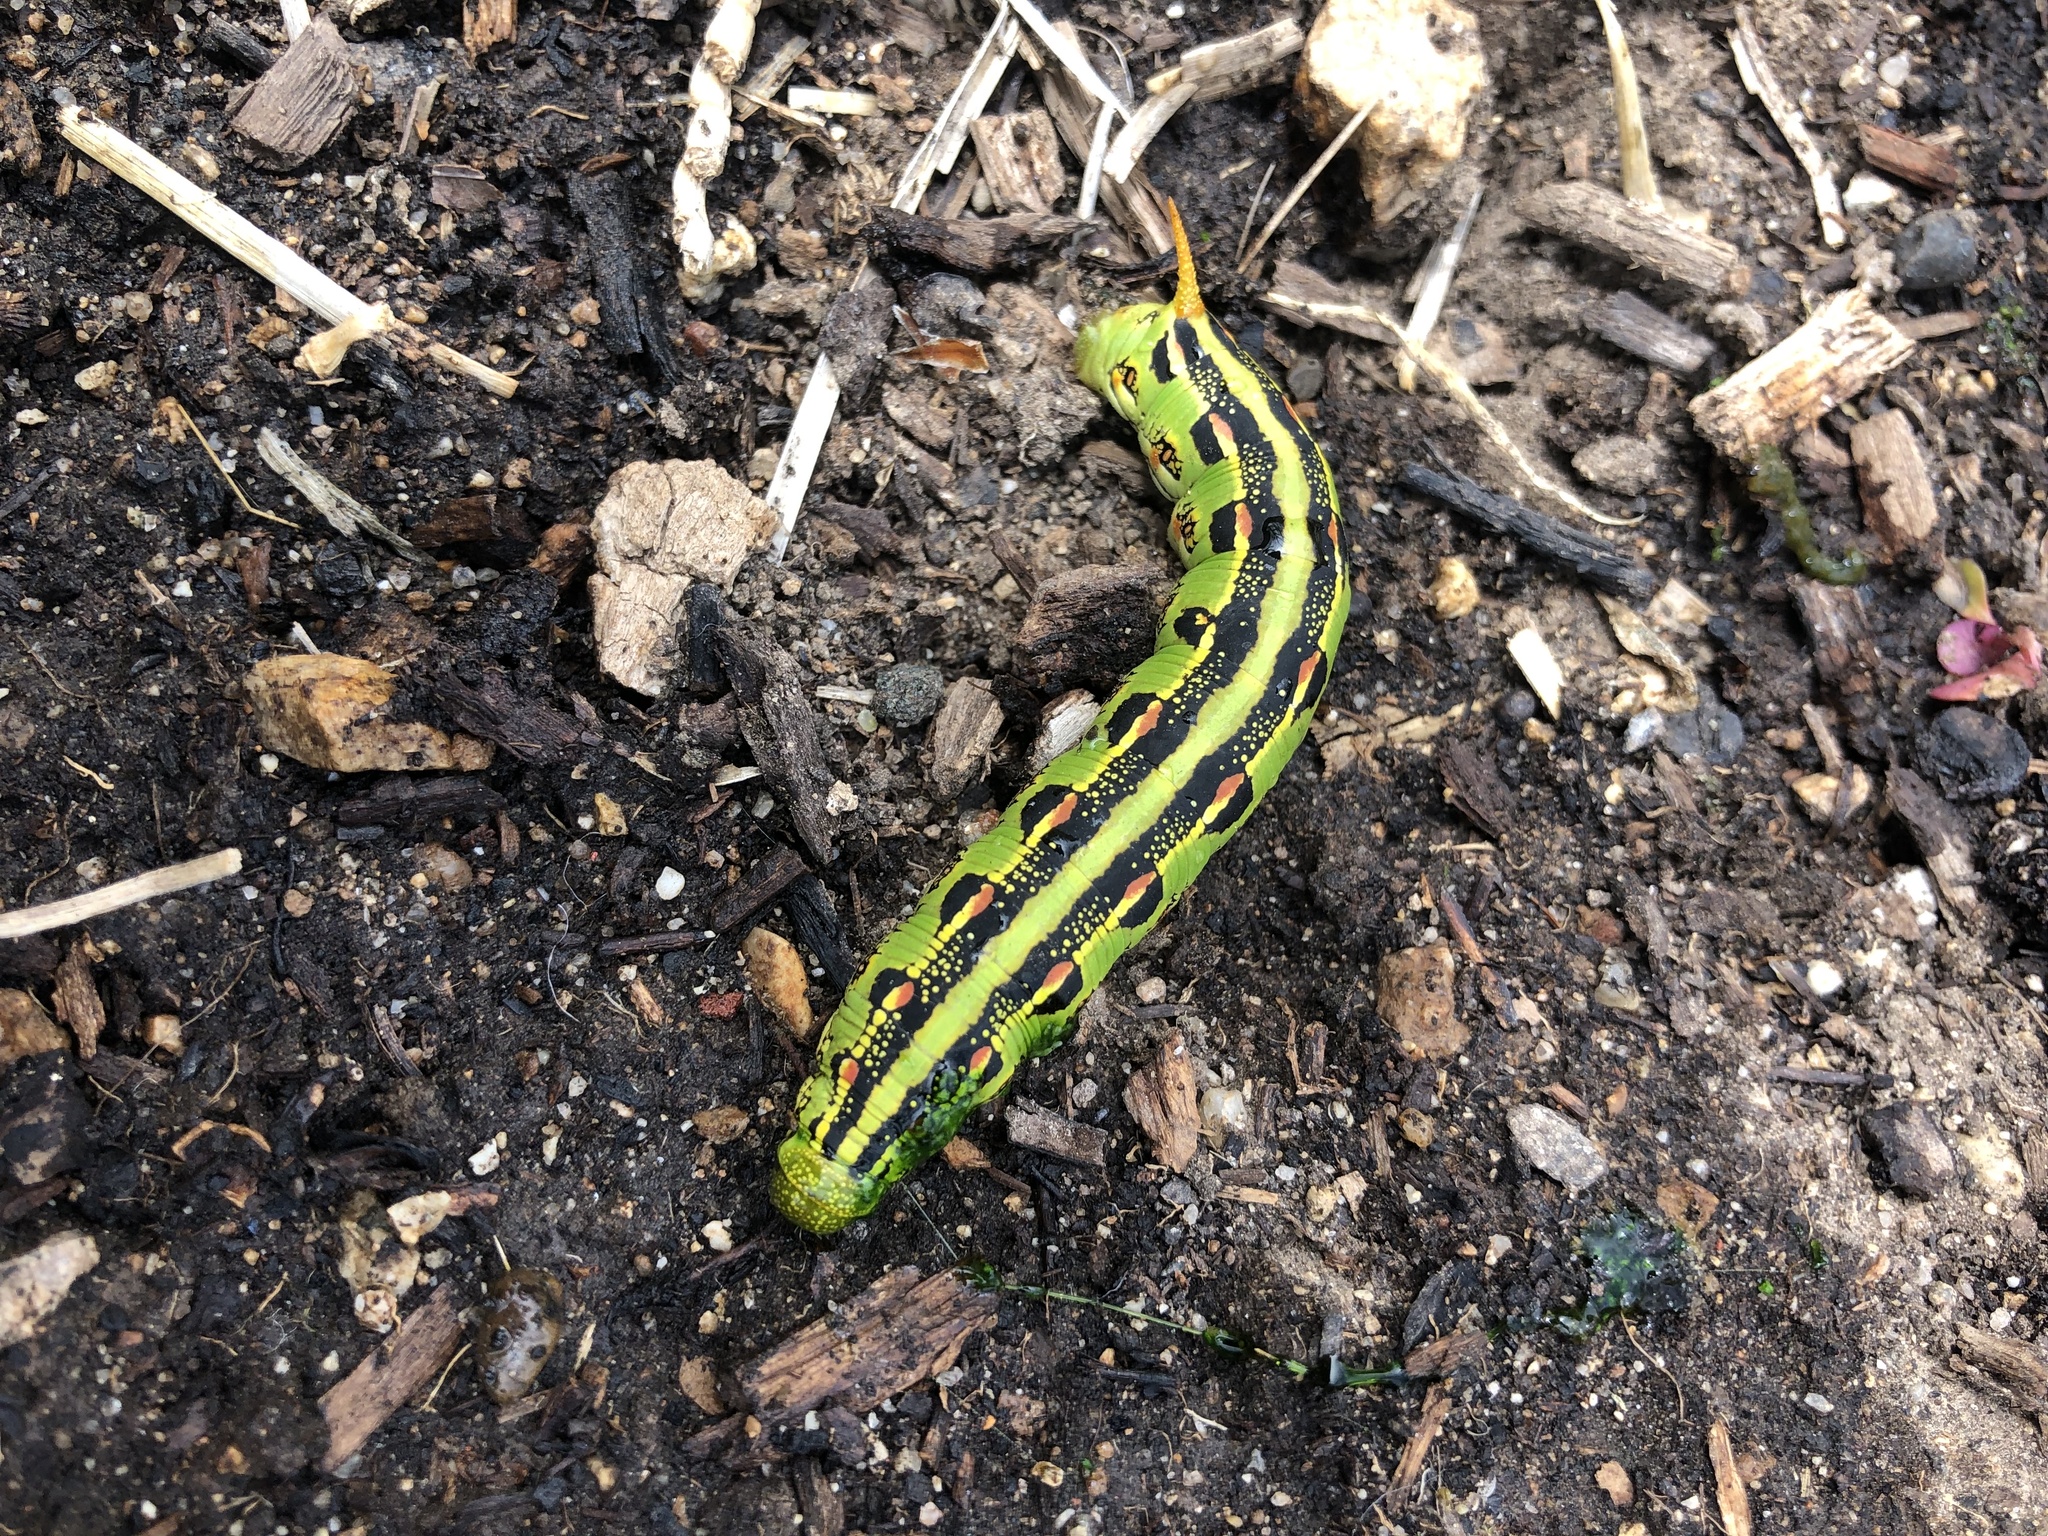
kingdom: Animalia
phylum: Arthropoda
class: Insecta
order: Lepidoptera
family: Sphingidae
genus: Hyles
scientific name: Hyles lineata
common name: White-lined sphinx
